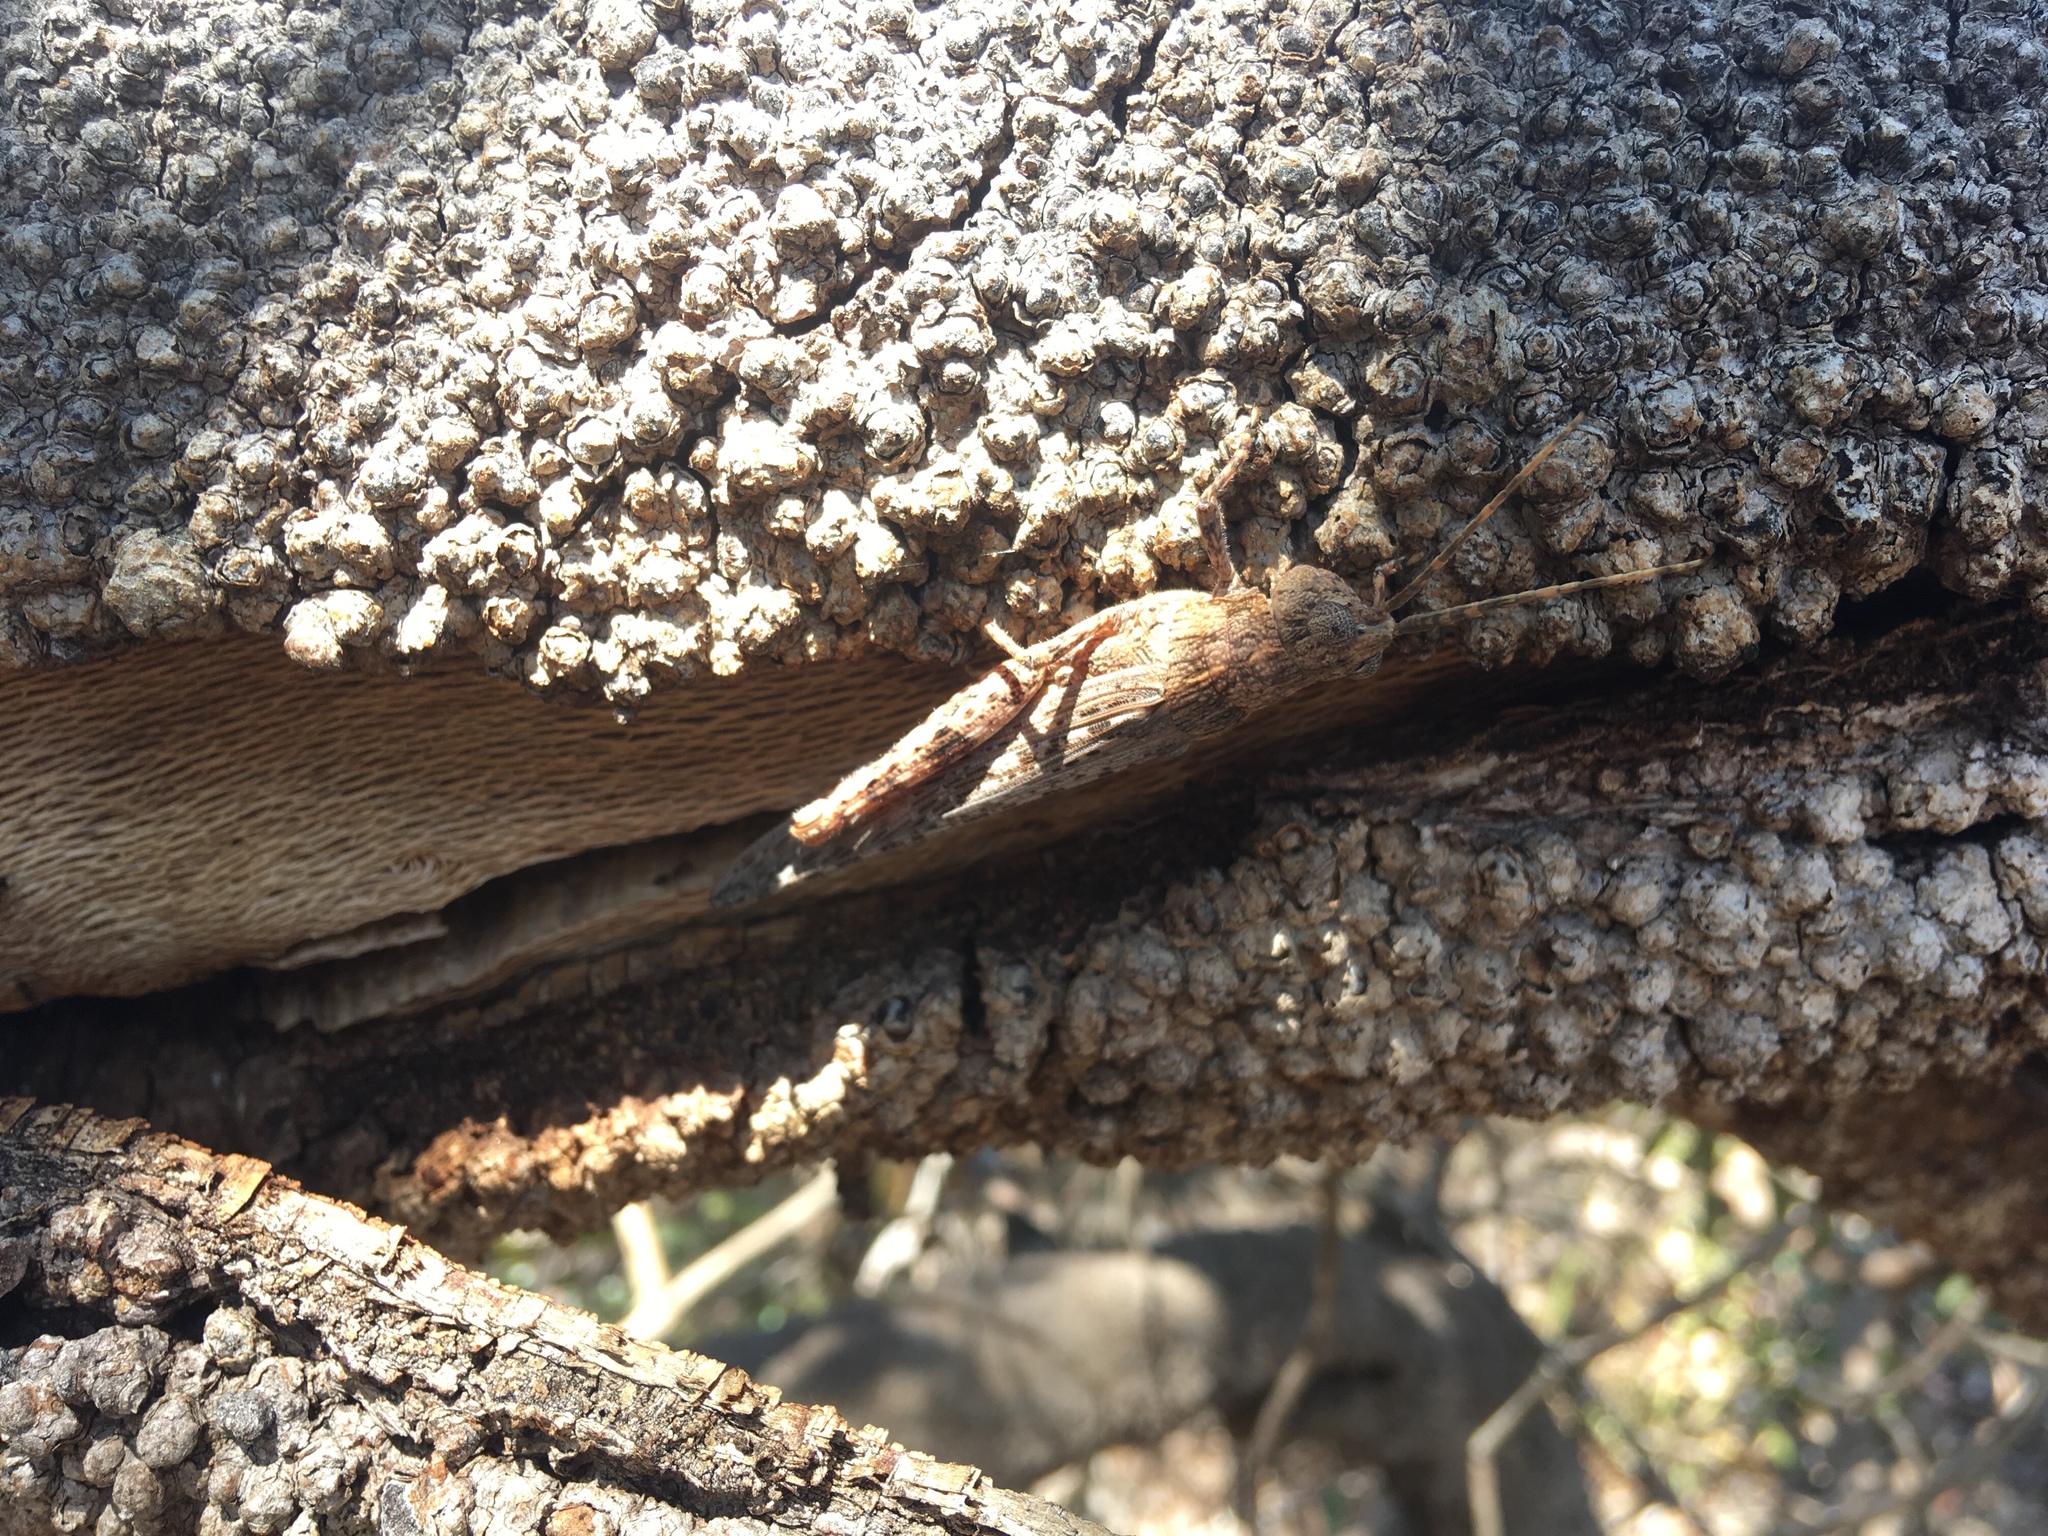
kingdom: Animalia
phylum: Arthropoda
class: Insecta
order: Orthoptera
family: Acrididae
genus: Coryphistes
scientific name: Coryphistes ruricola
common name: Bark-mimicking grasshopper
